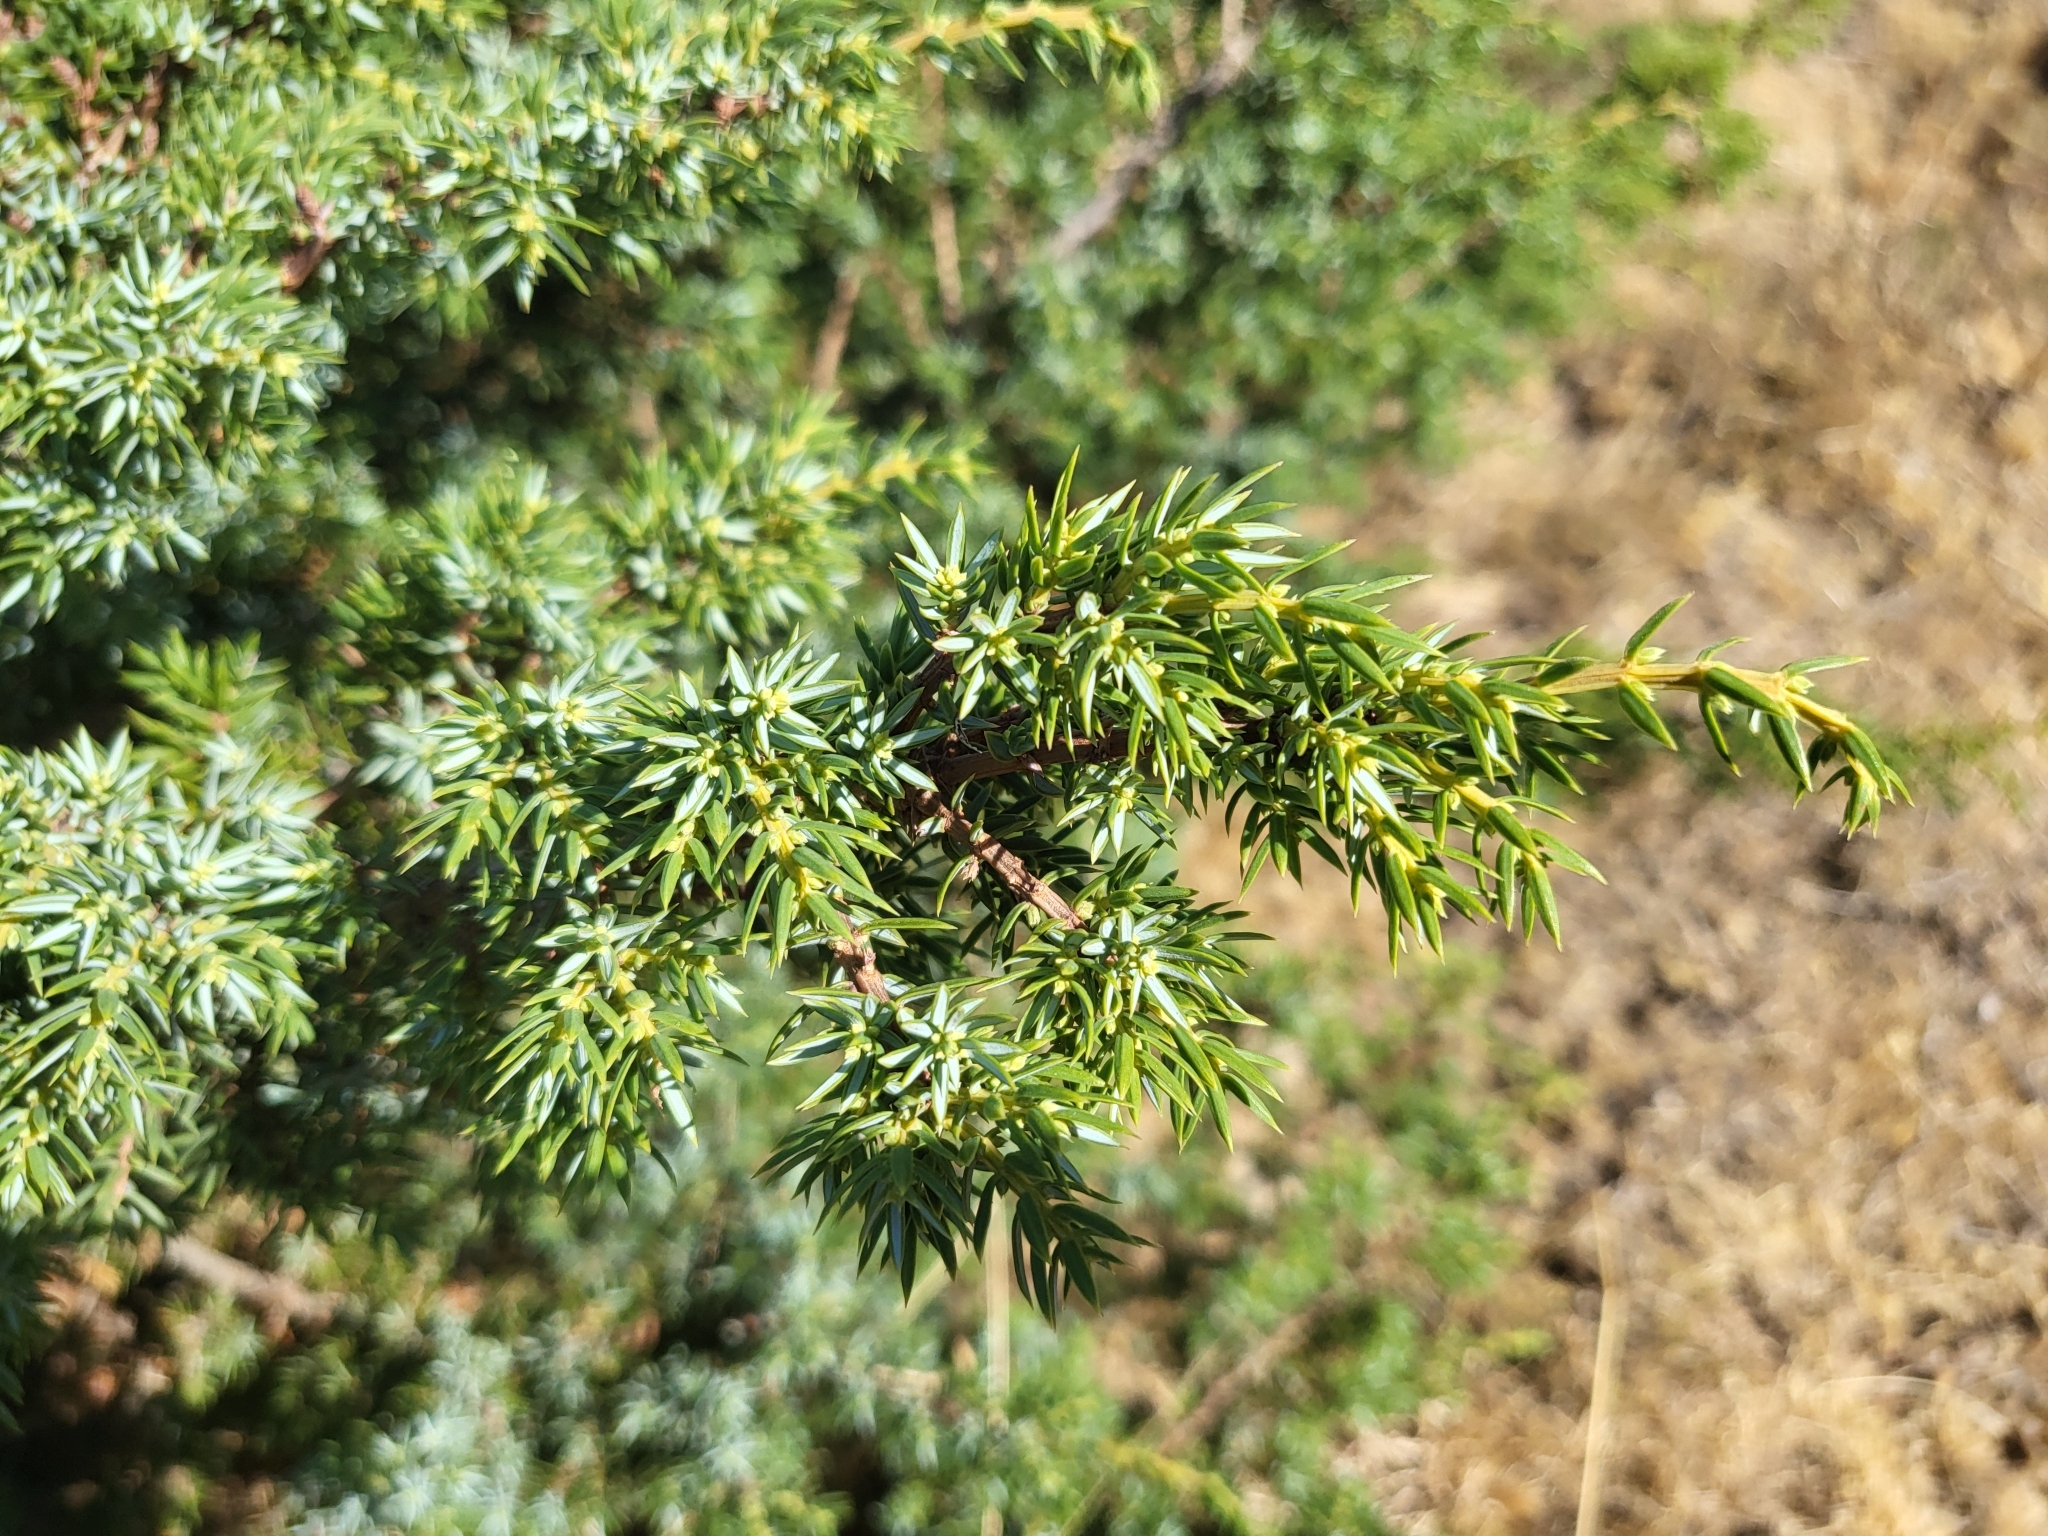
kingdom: Plantae
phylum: Tracheophyta
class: Pinopsida
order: Pinales
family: Cupressaceae
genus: Juniperus
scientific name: Juniperus communis
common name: Common juniper
